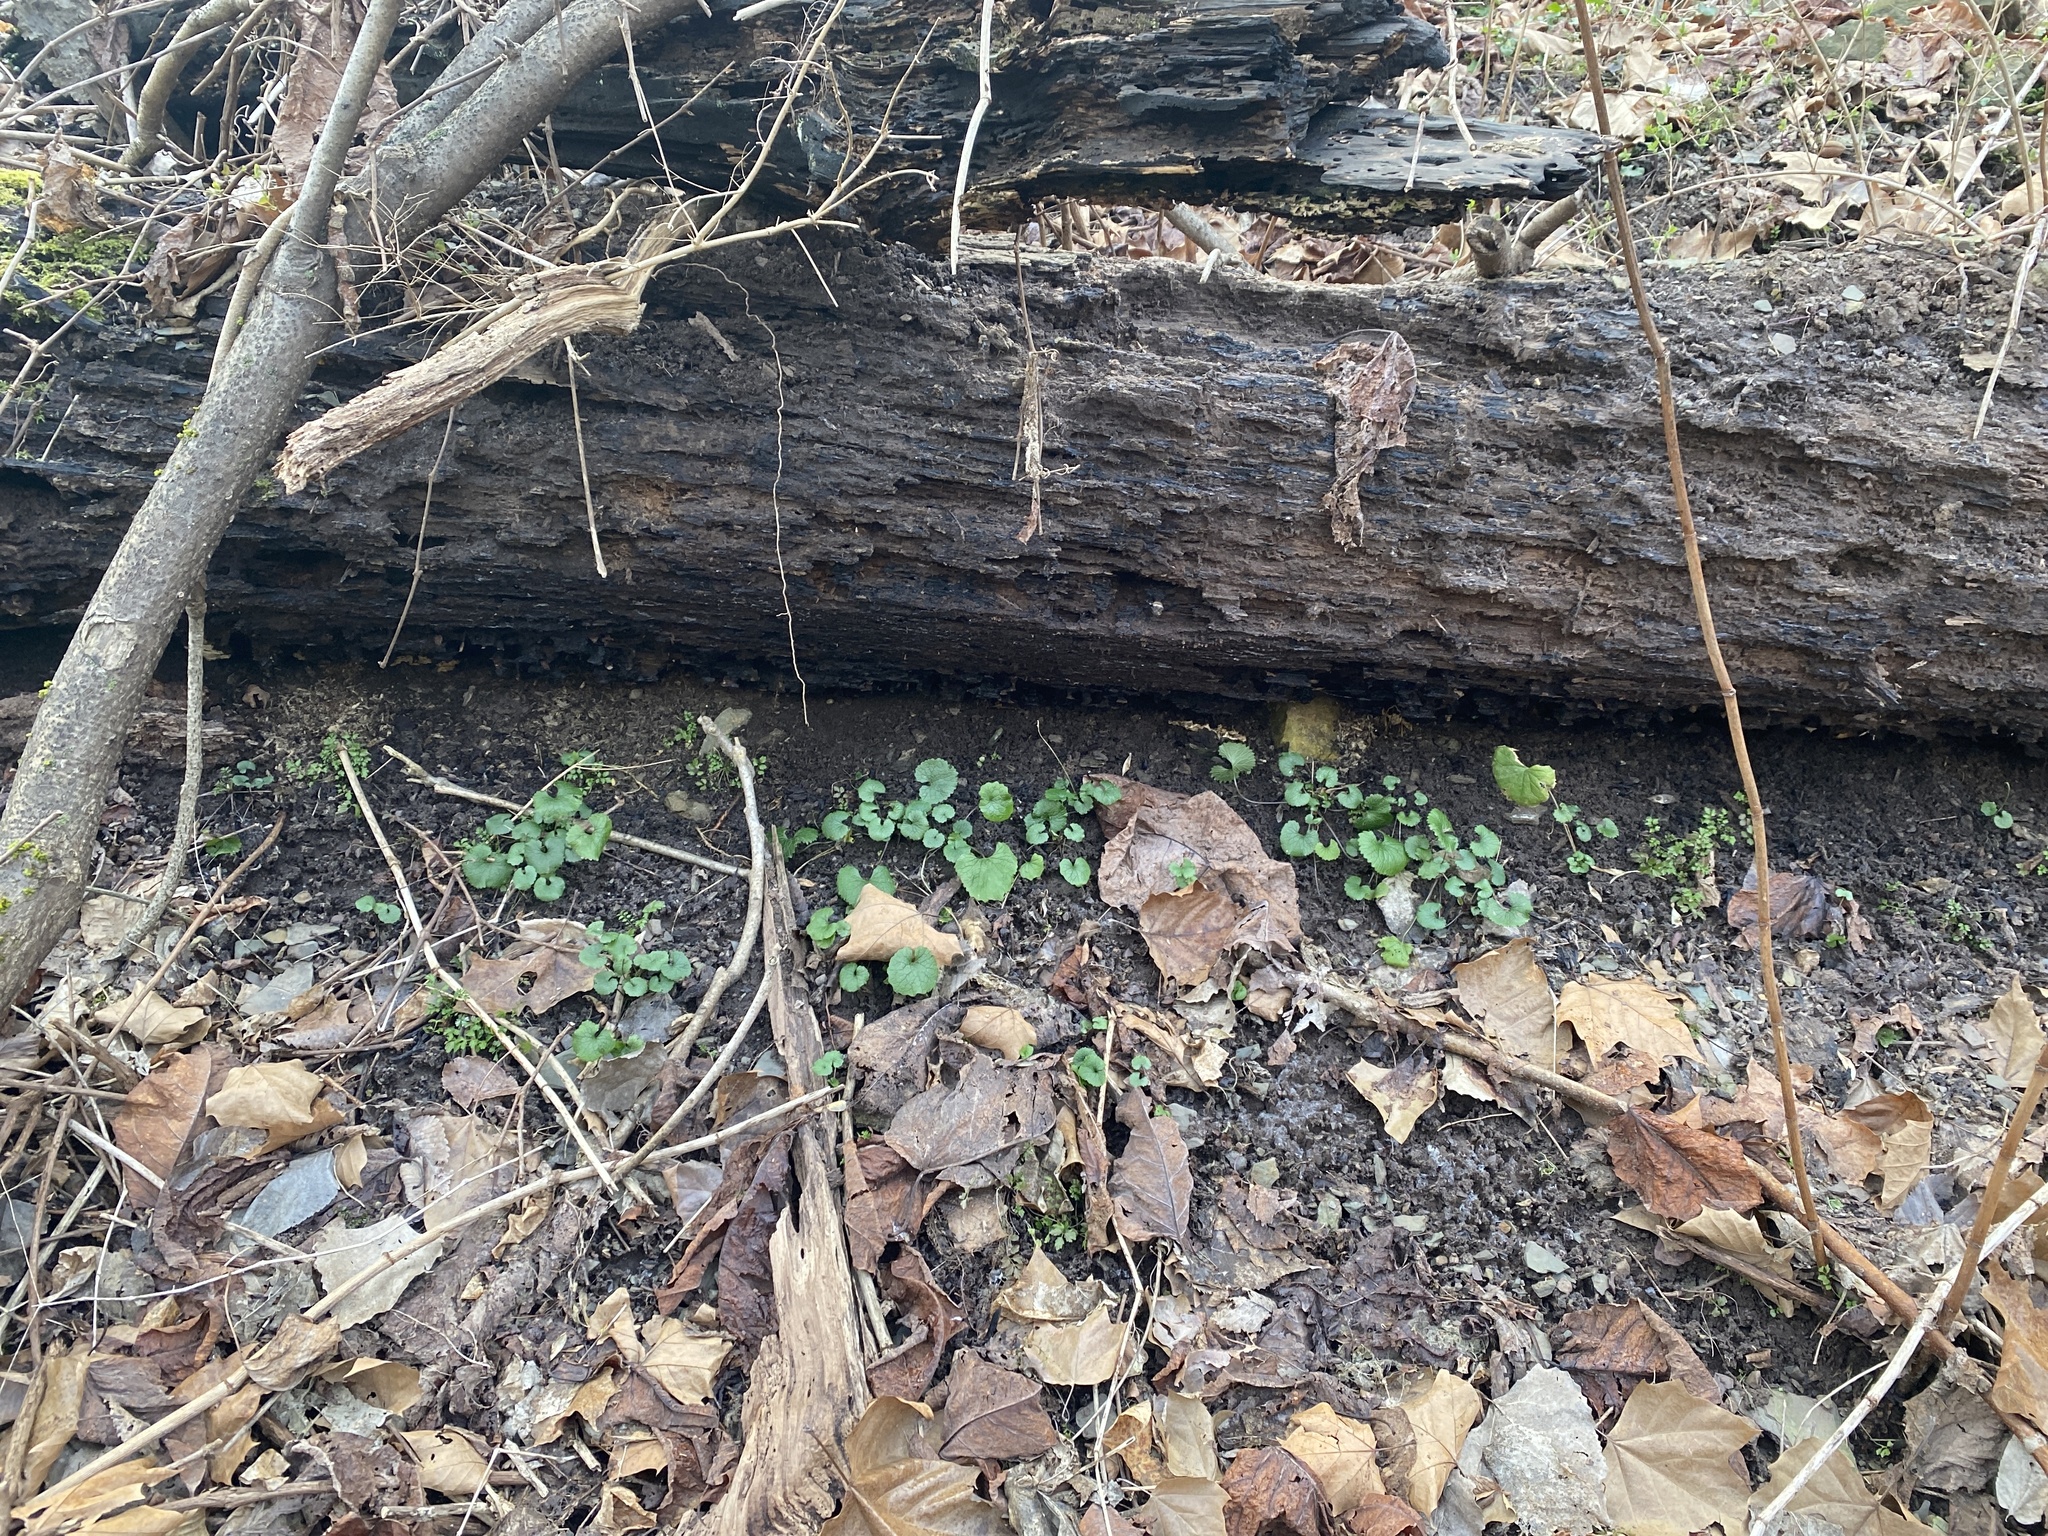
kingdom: Plantae
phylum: Tracheophyta
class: Magnoliopsida
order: Brassicales
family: Brassicaceae
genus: Alliaria
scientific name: Alliaria petiolata
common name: Garlic mustard
